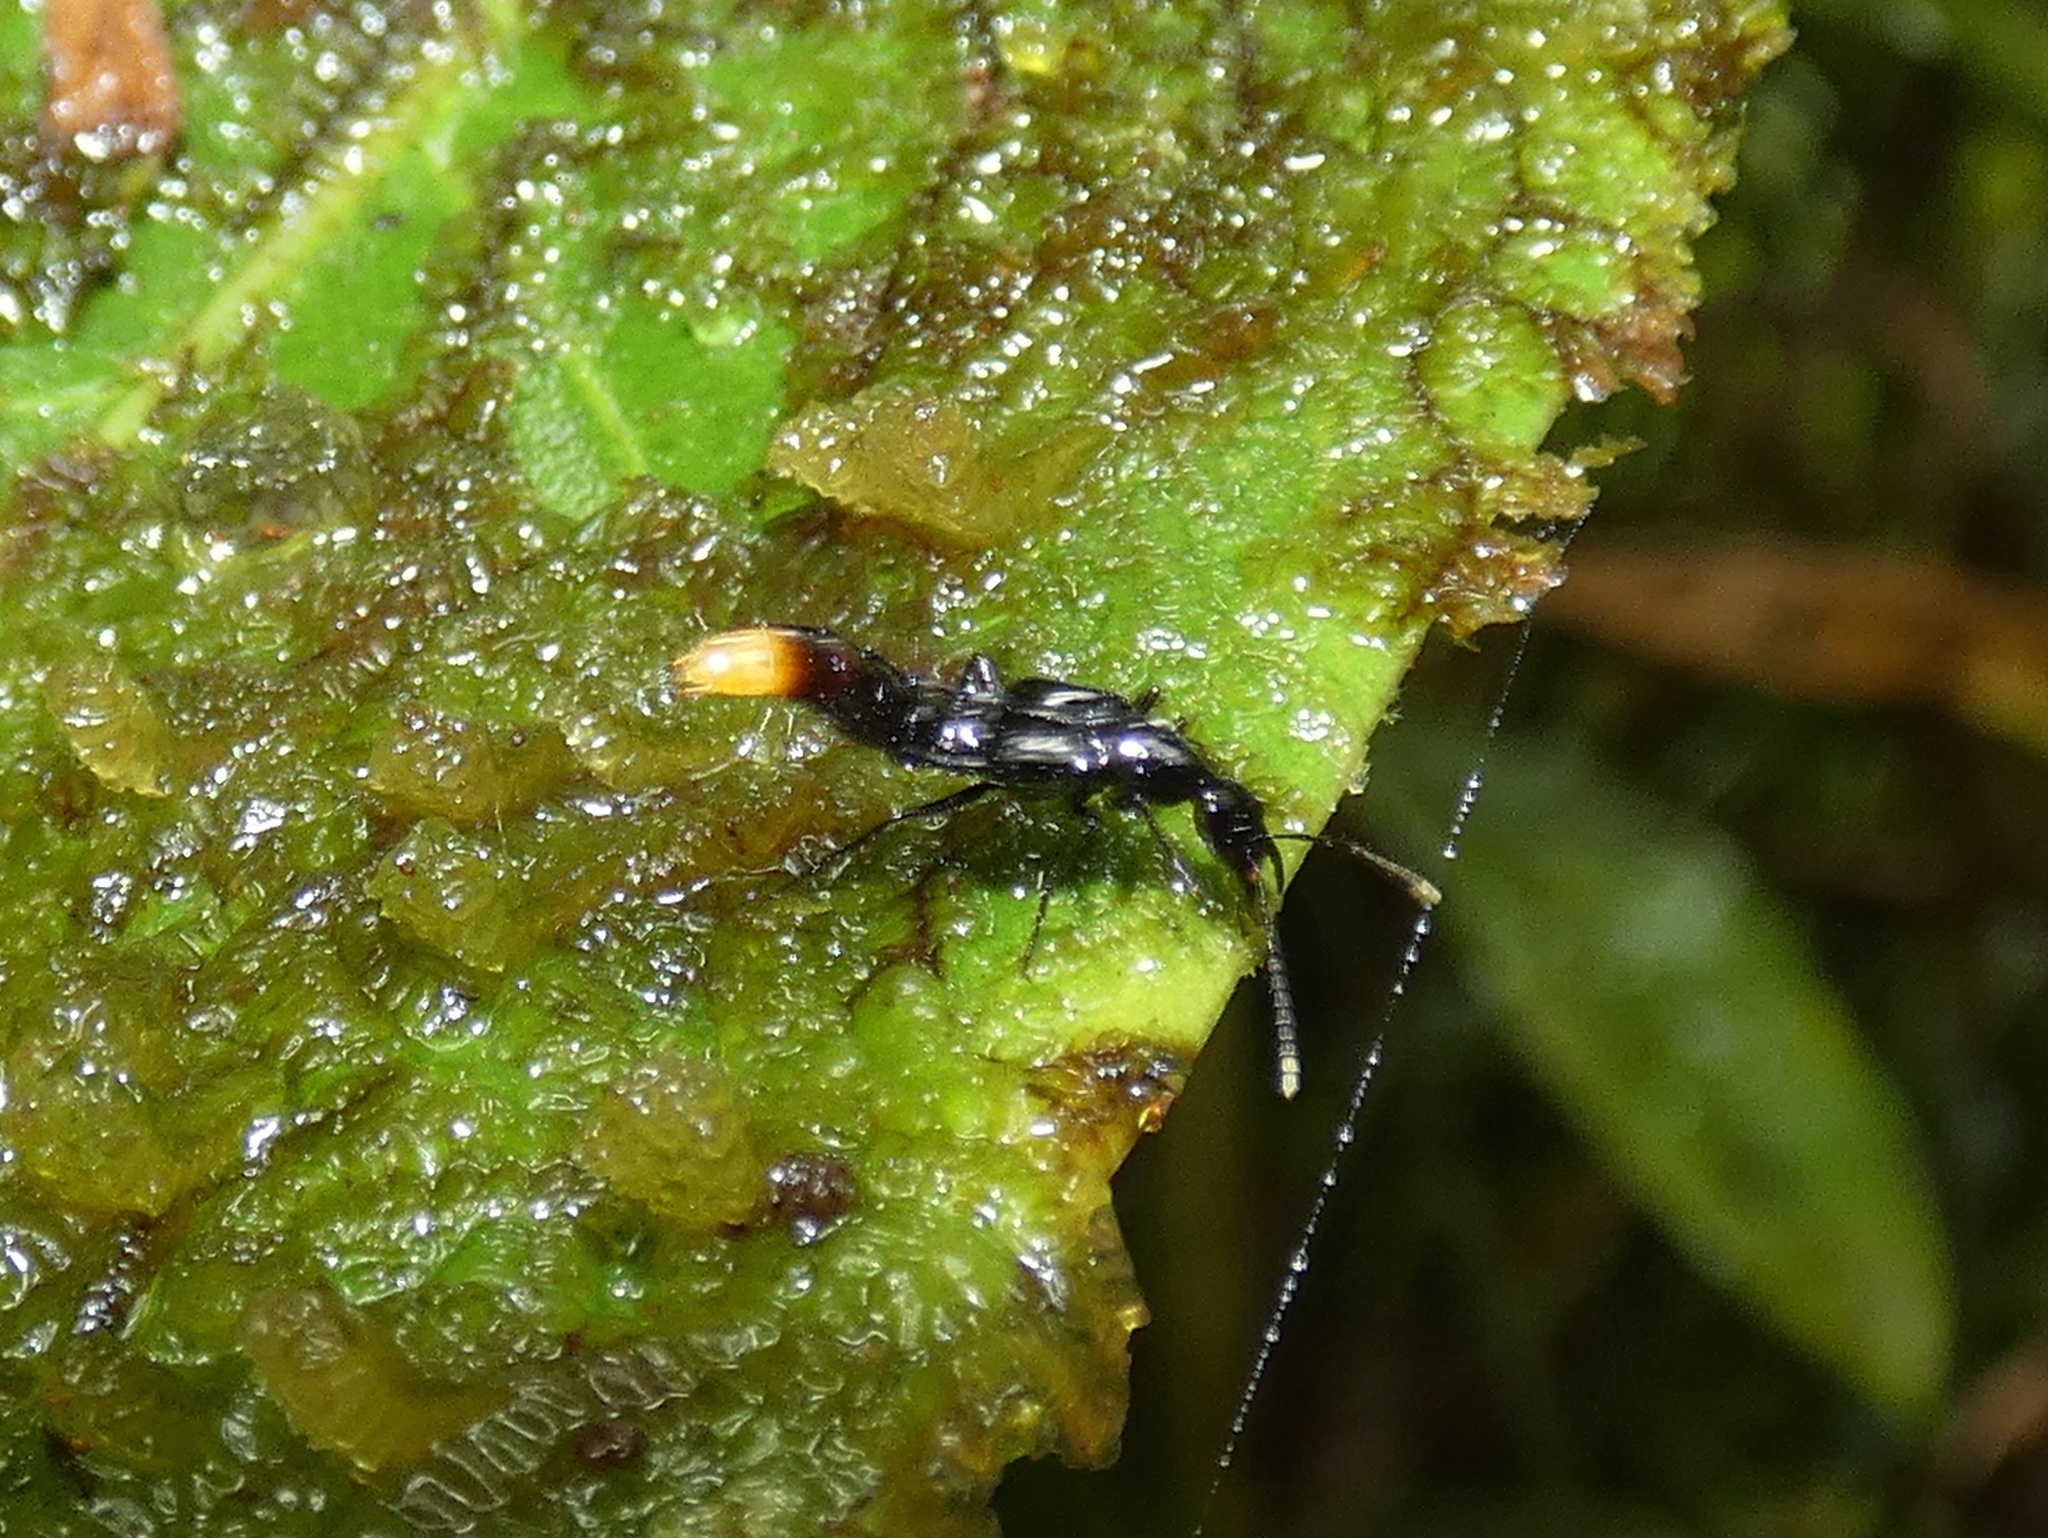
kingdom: Animalia
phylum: Arthropoda
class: Insecta
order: Coleoptera
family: Staphylinidae
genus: Paederomimus
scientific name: Paederomimus nigrinus
